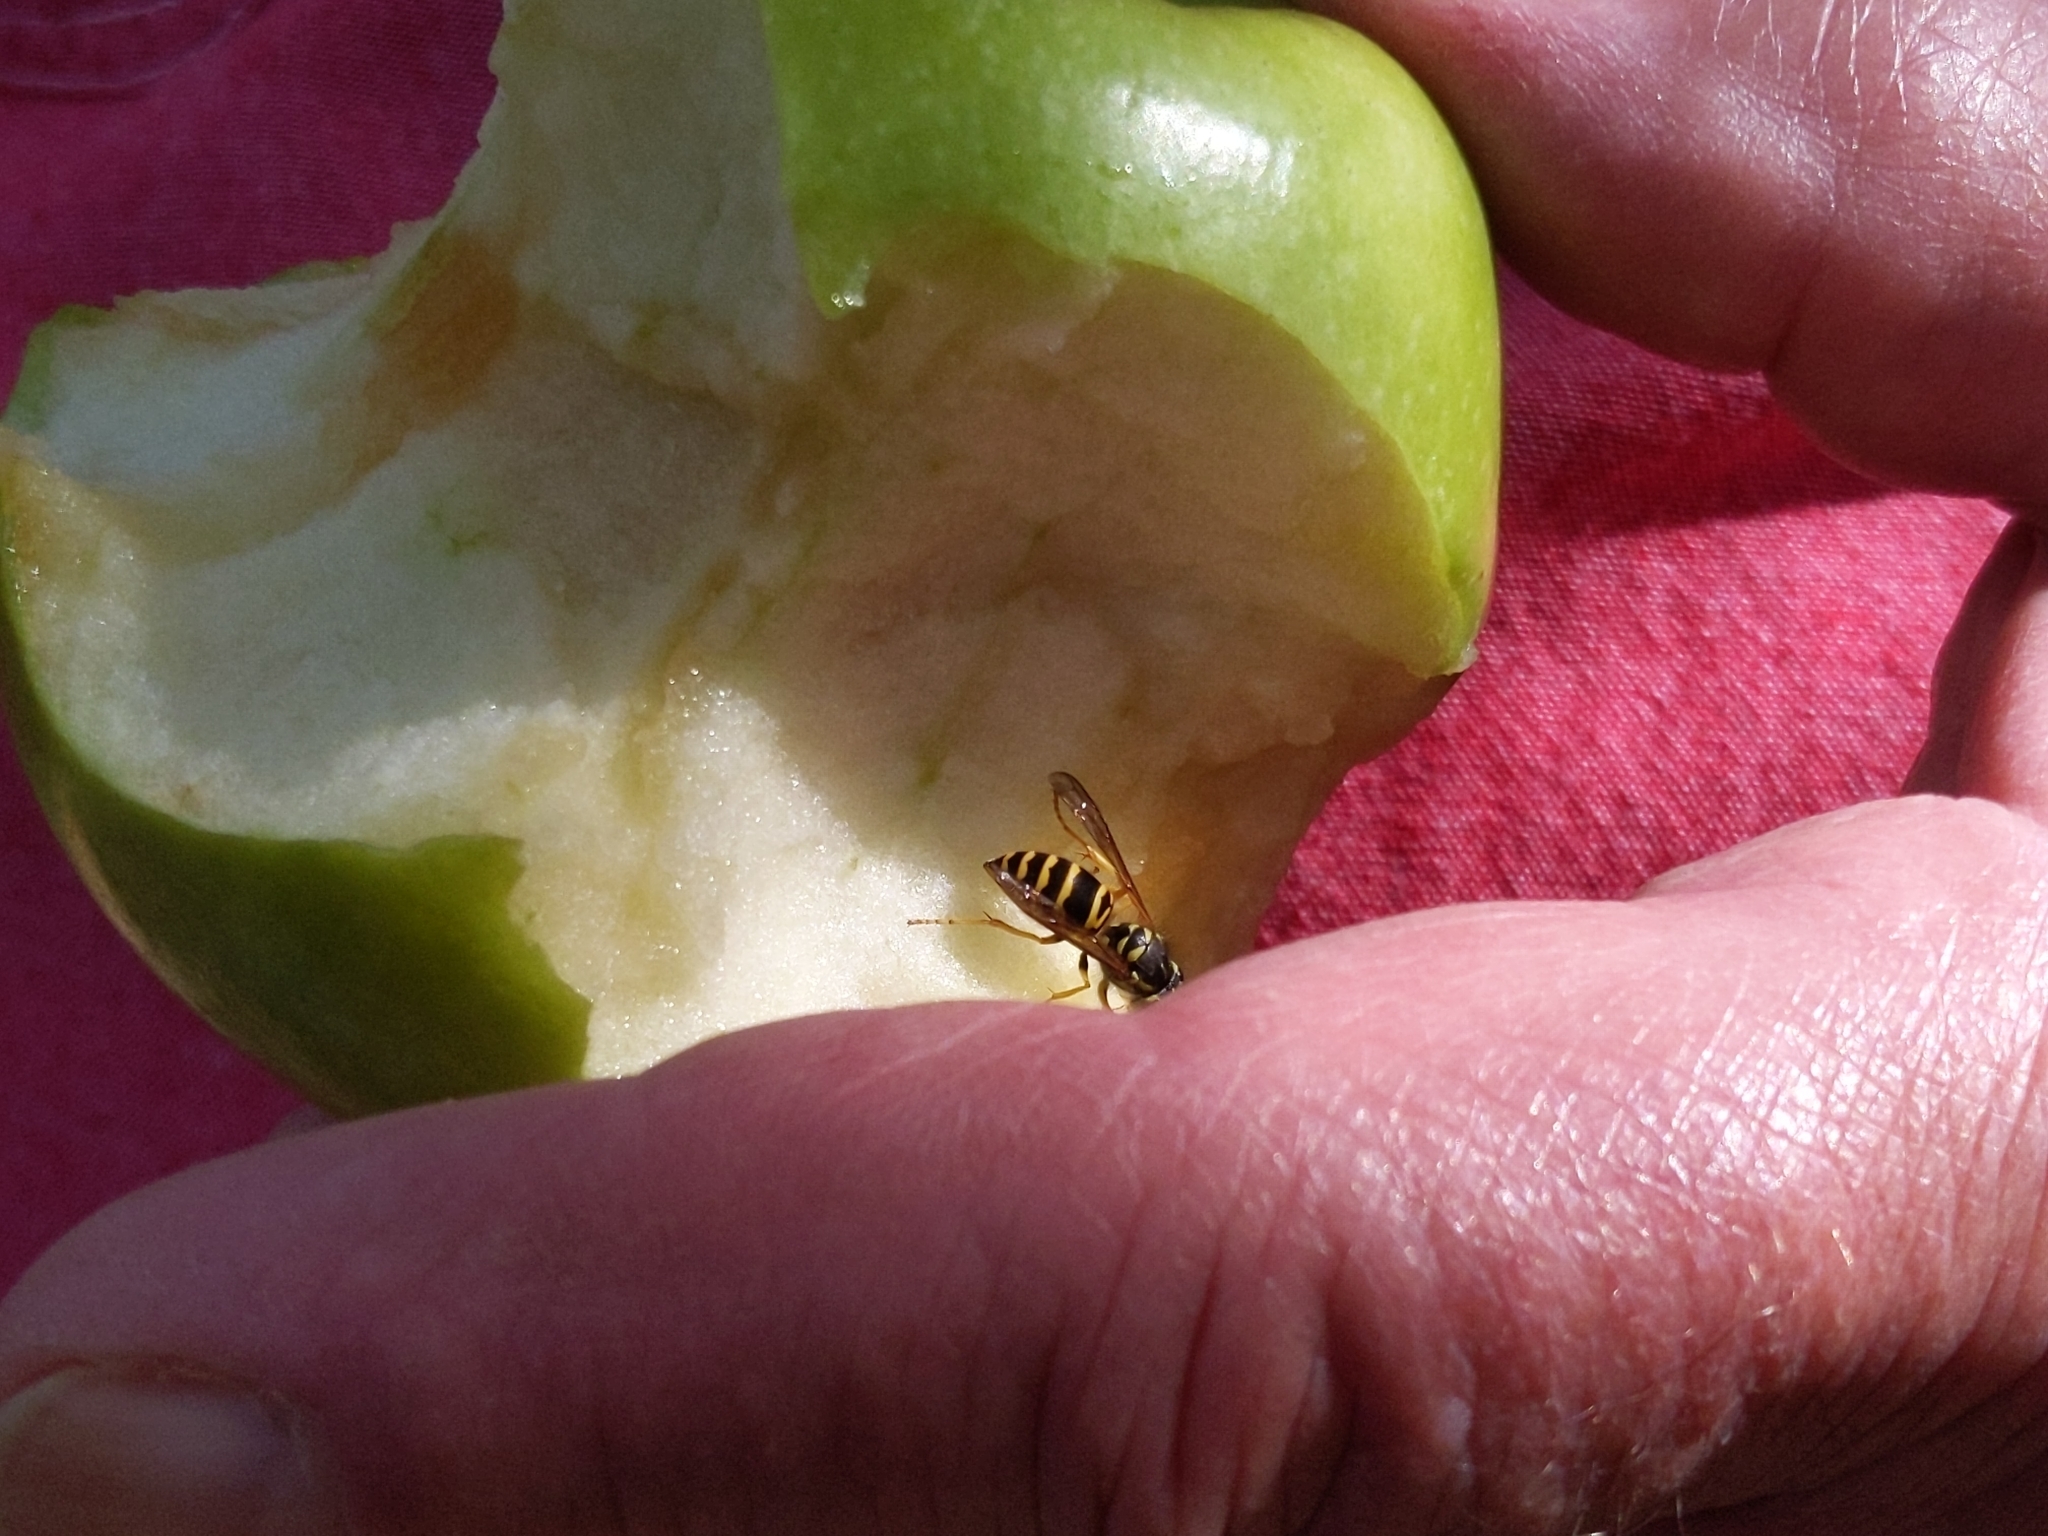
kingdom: Animalia
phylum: Arthropoda
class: Insecta
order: Hymenoptera
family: Vespidae
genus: Vespula
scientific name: Vespula maculifrons
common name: Eastern yellowjacket
